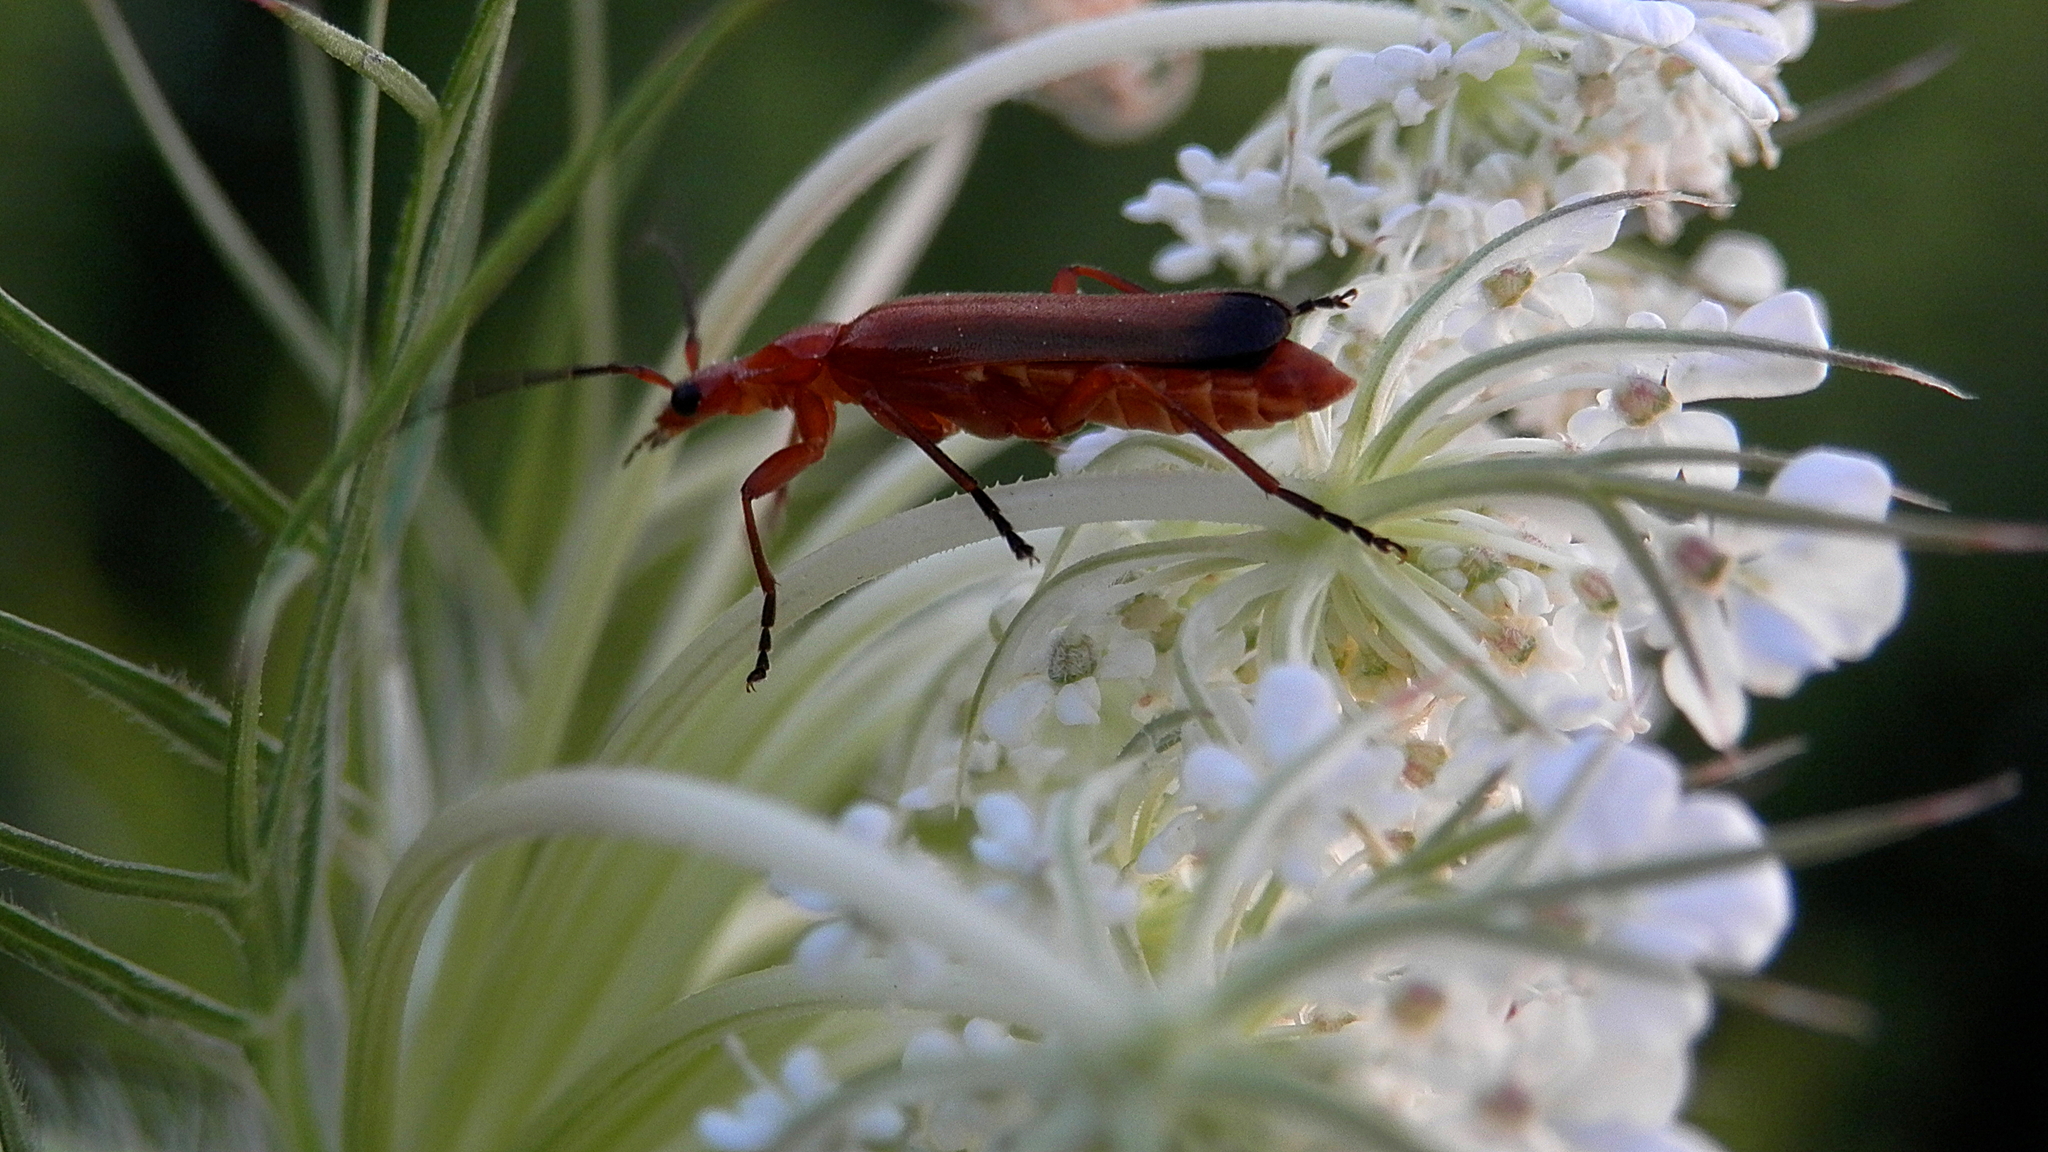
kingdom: Animalia
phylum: Arthropoda
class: Insecta
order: Coleoptera
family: Cantharidae
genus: Rhagonycha
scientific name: Rhagonycha fulva
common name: Common red soldier beetle
